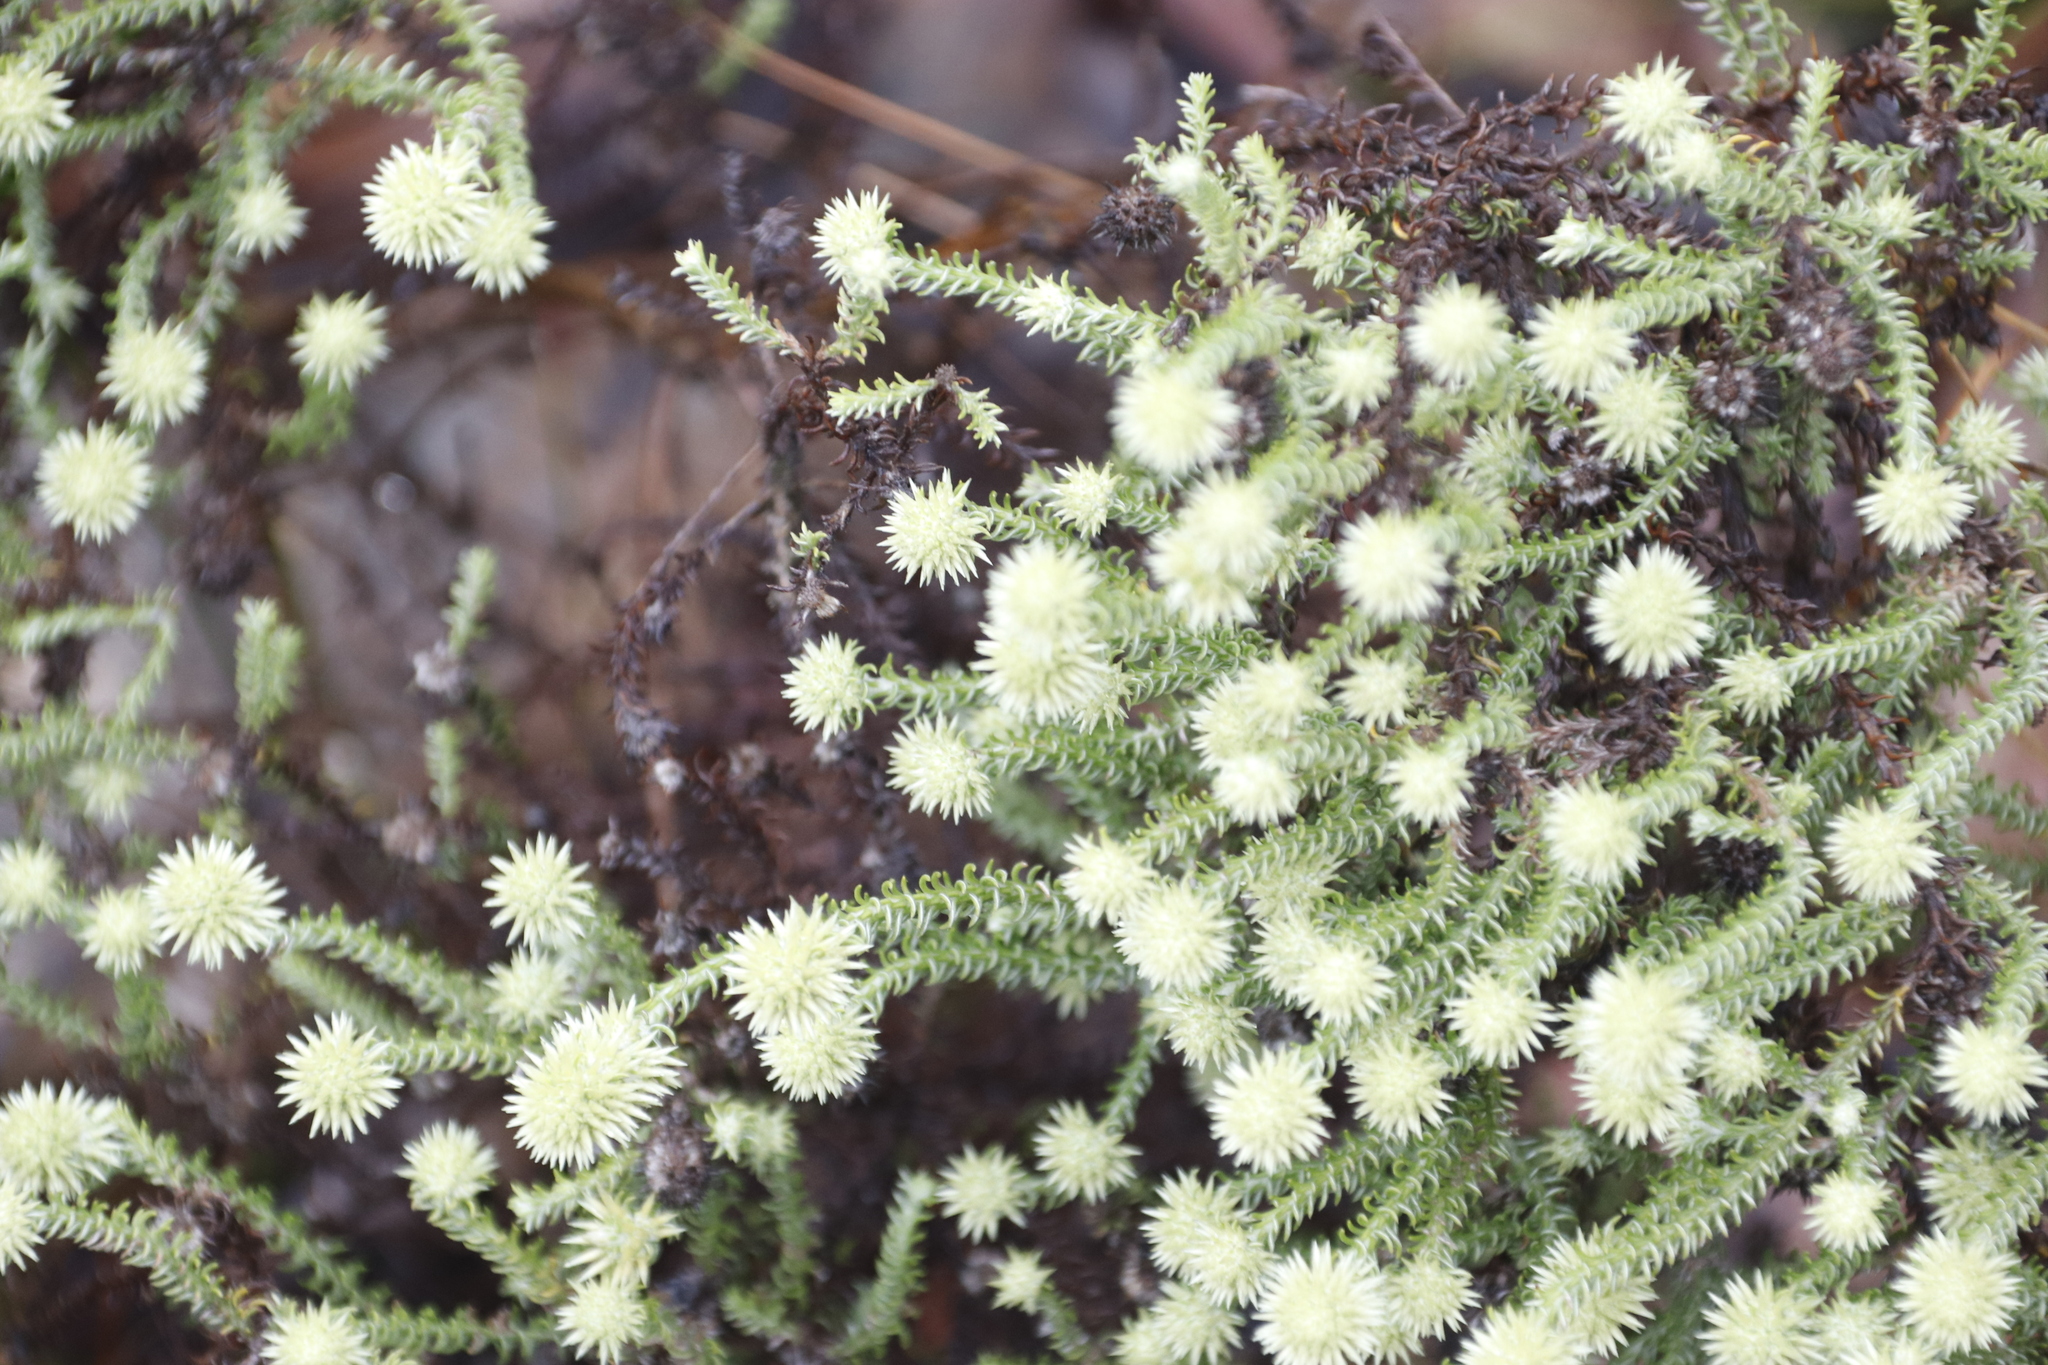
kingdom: Plantae
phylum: Tracheophyta
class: Magnoliopsida
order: Asterales
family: Asteraceae
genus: Seriphium
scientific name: Seriphium spirale
